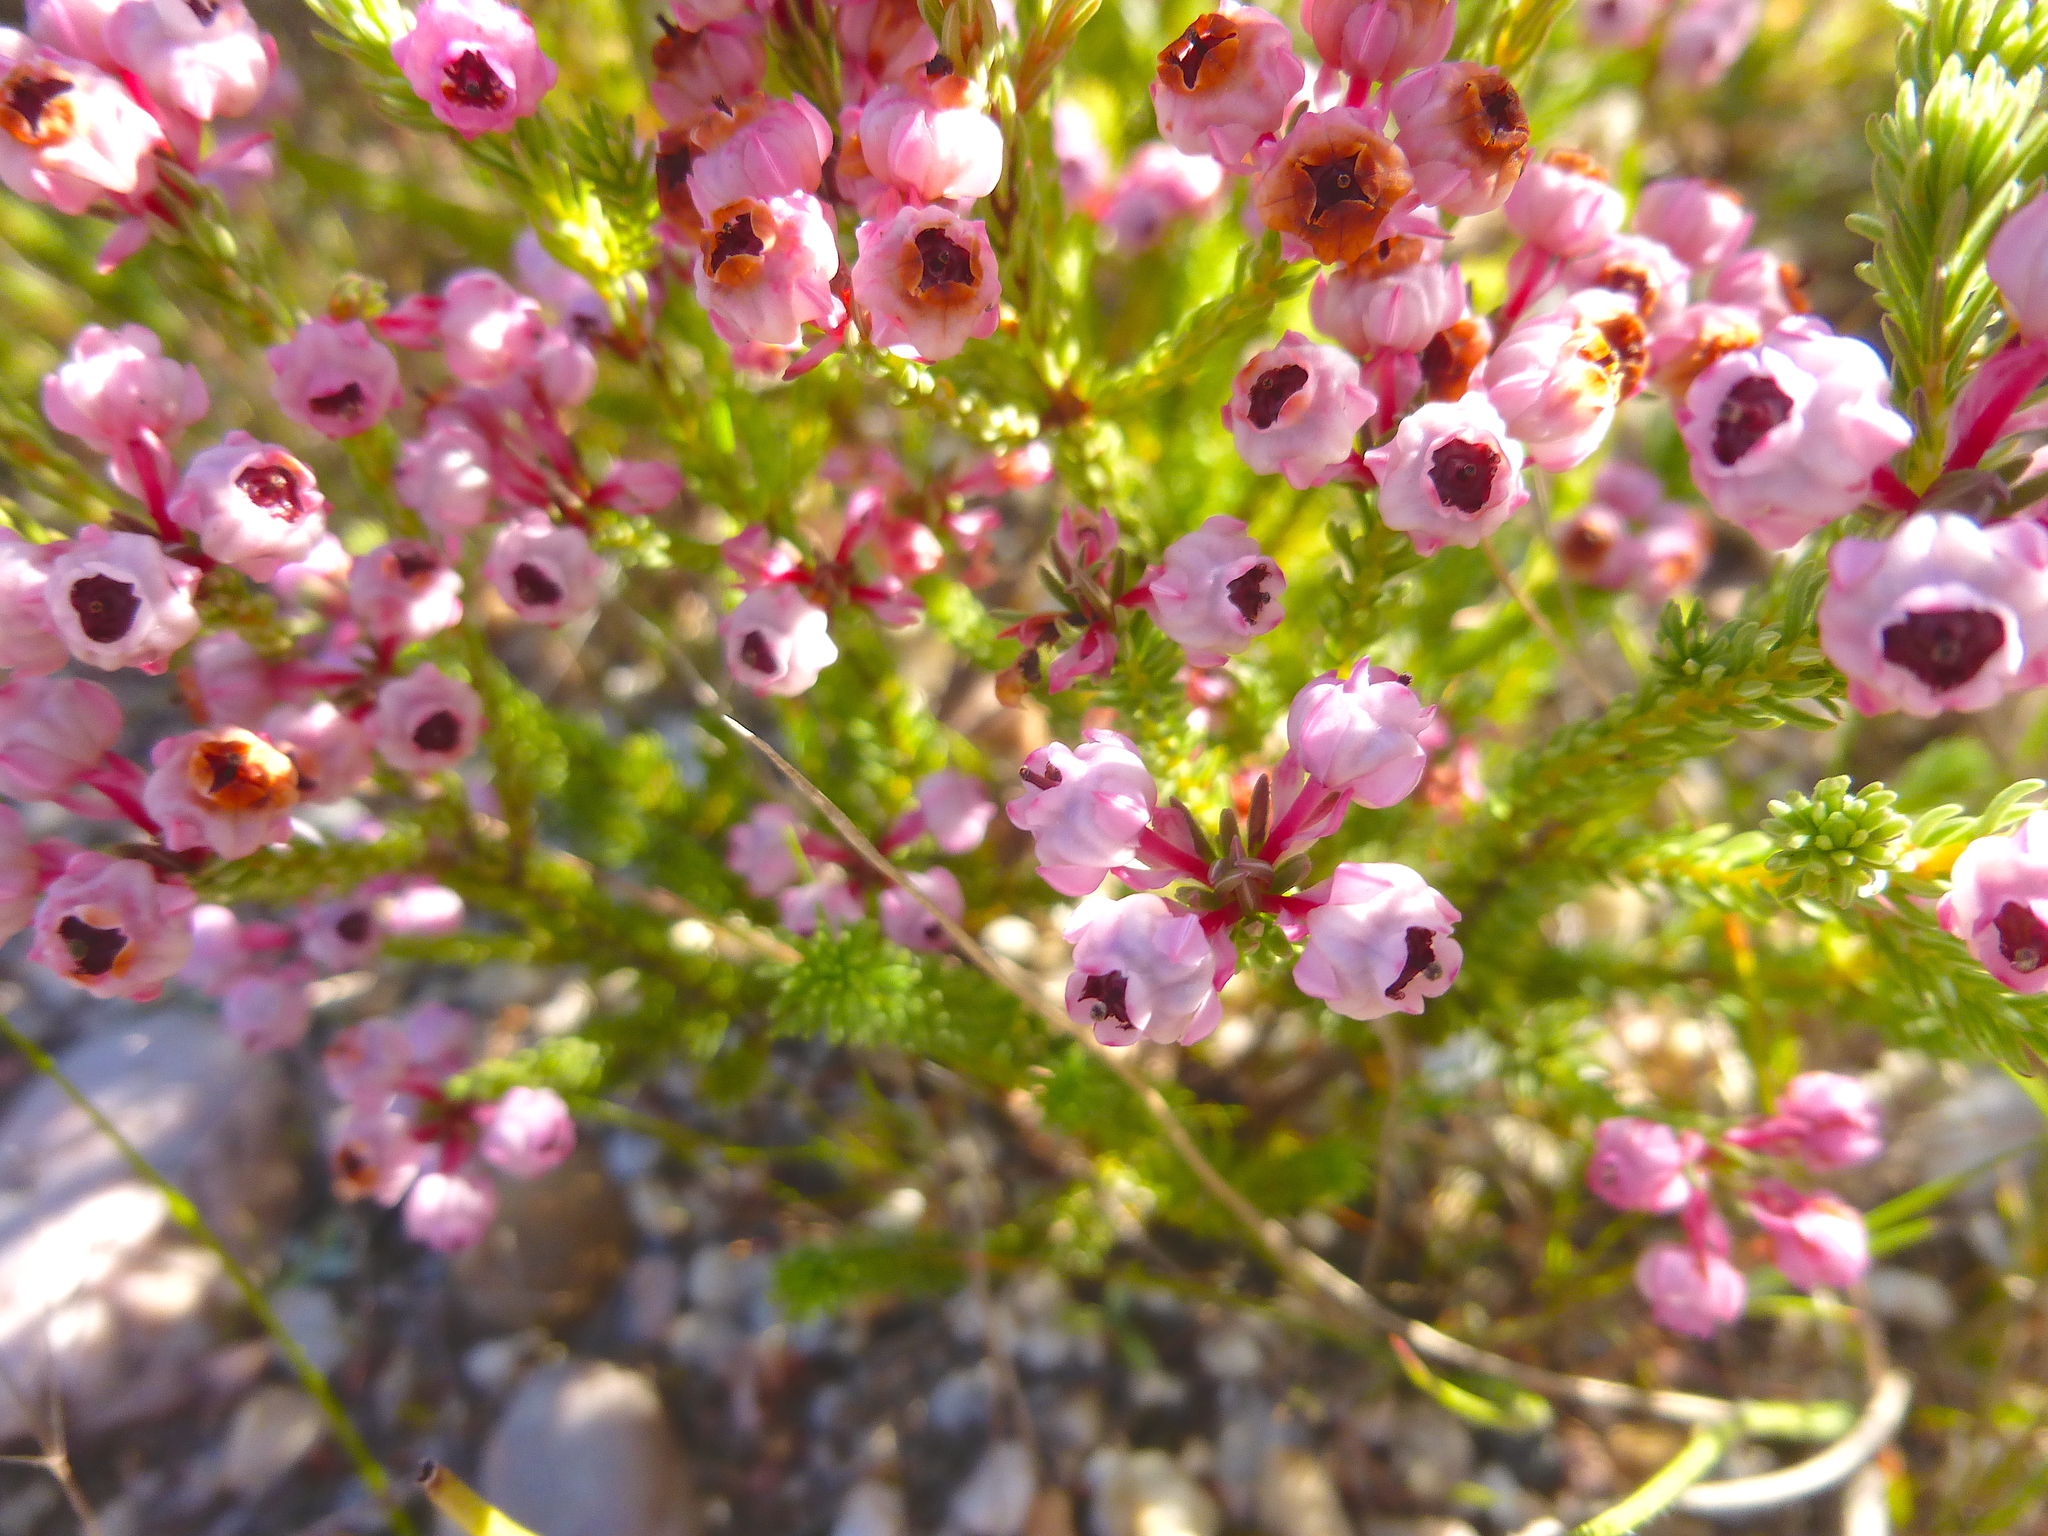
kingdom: Plantae
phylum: Tracheophyta
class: Magnoliopsida
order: Ericales
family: Ericaceae
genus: Erica
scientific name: Erica baccans
